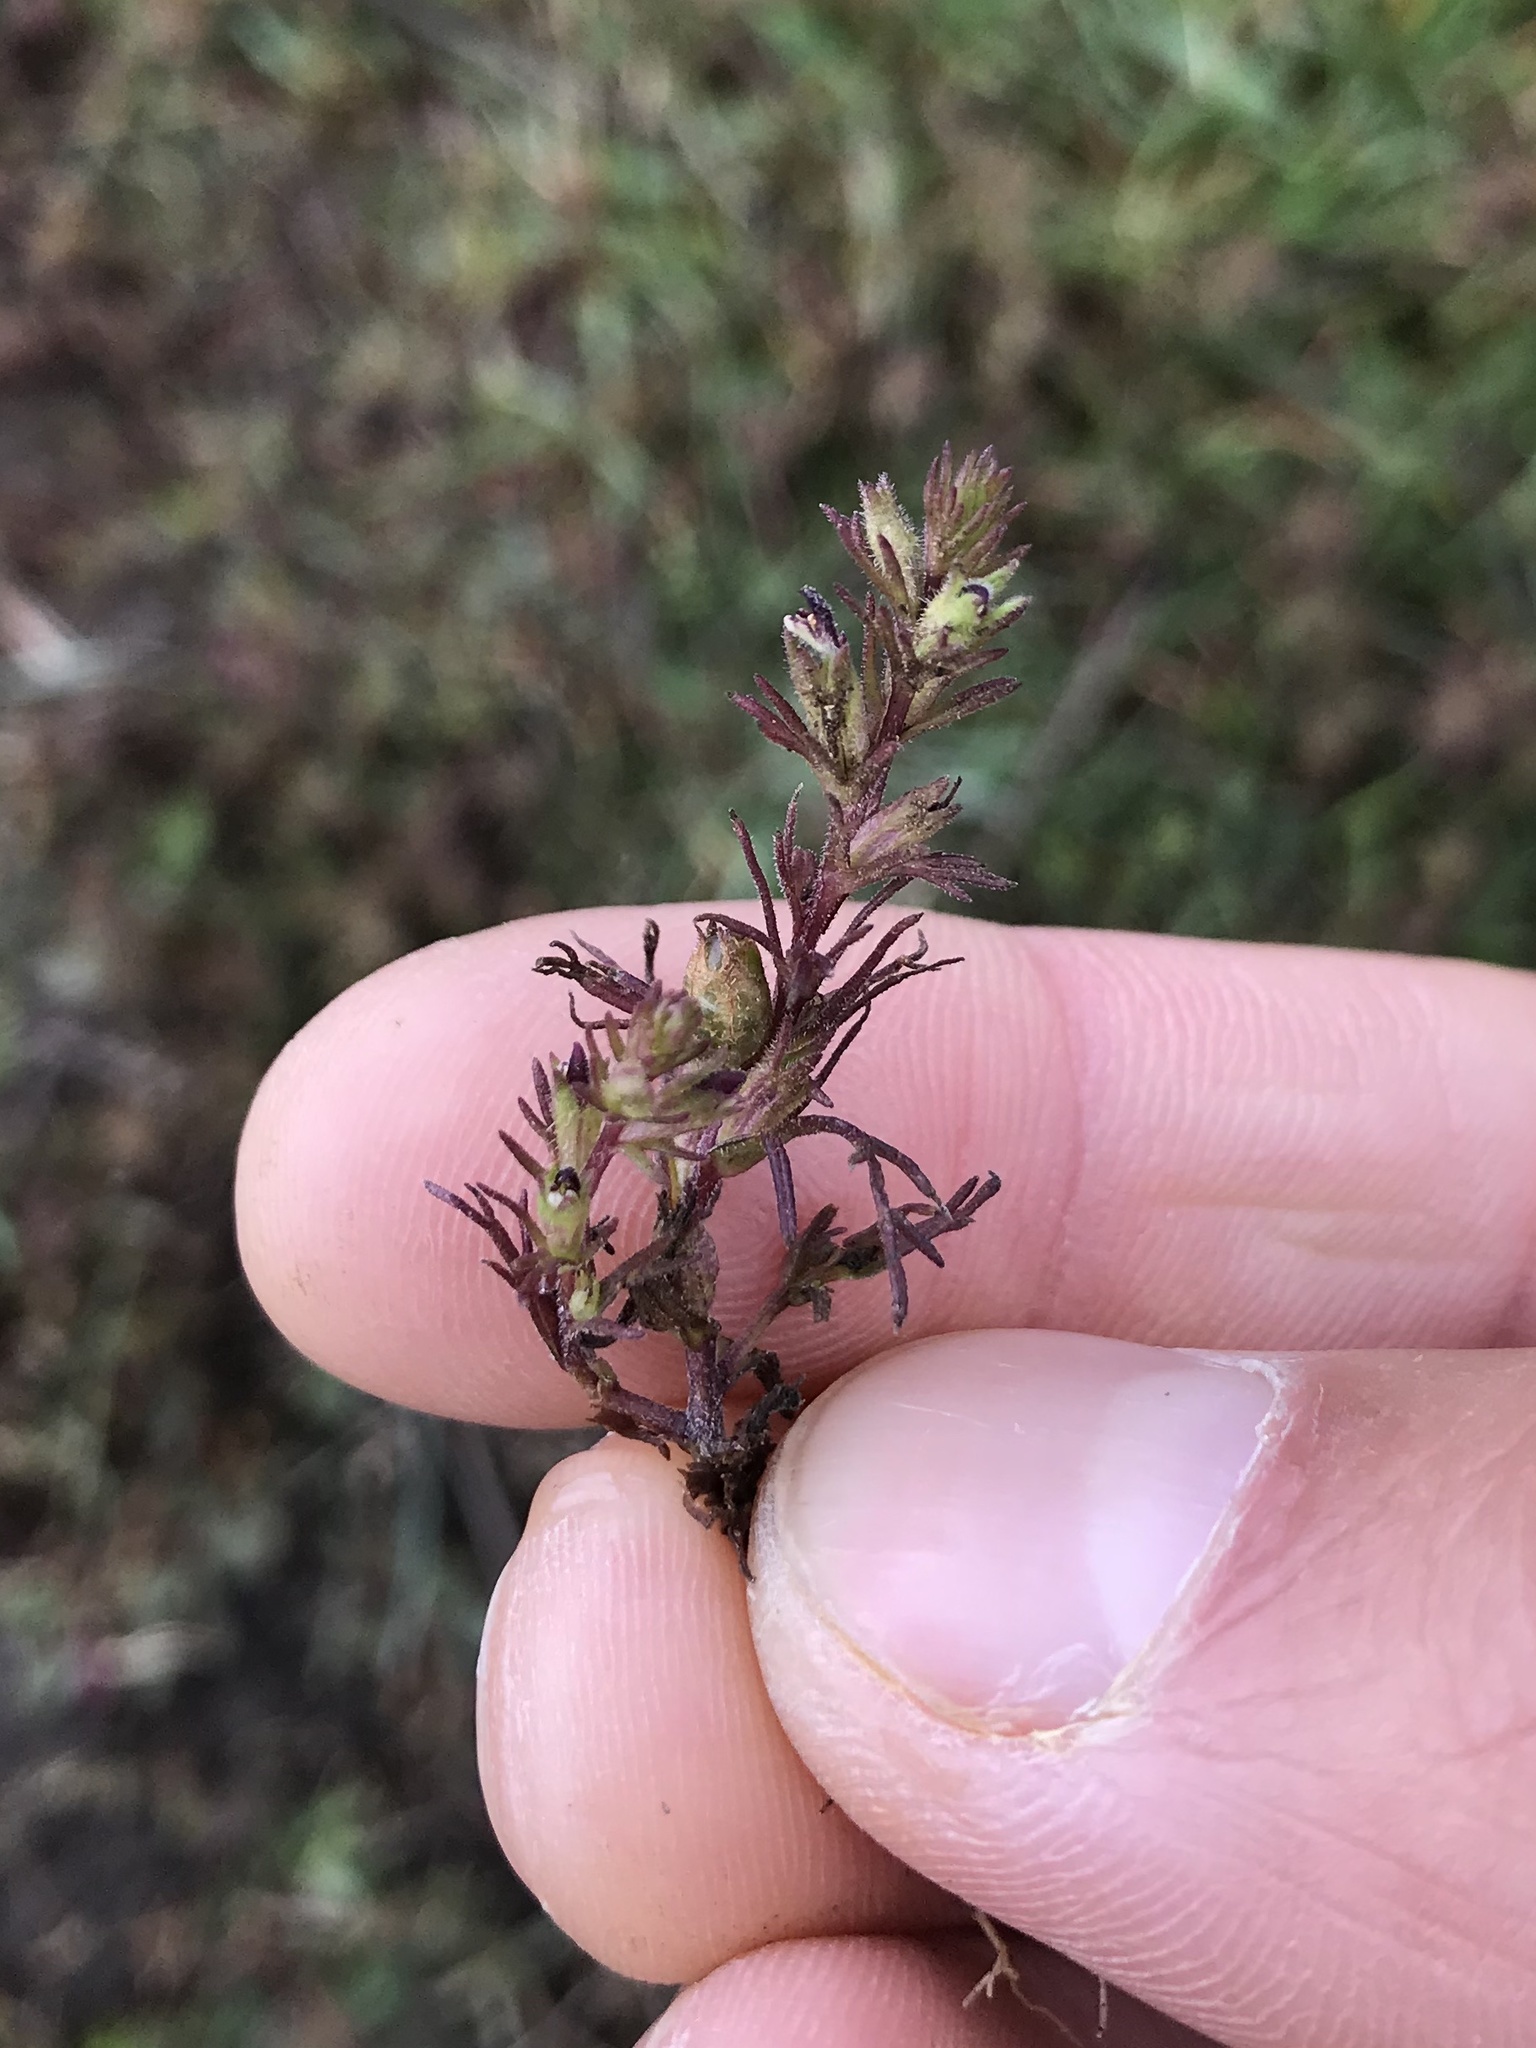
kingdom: Plantae
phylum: Tracheophyta
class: Magnoliopsida
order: Lamiales
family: Orobanchaceae
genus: Triphysaria
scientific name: Triphysaria pusilla
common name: Dwarf false owl-clover
